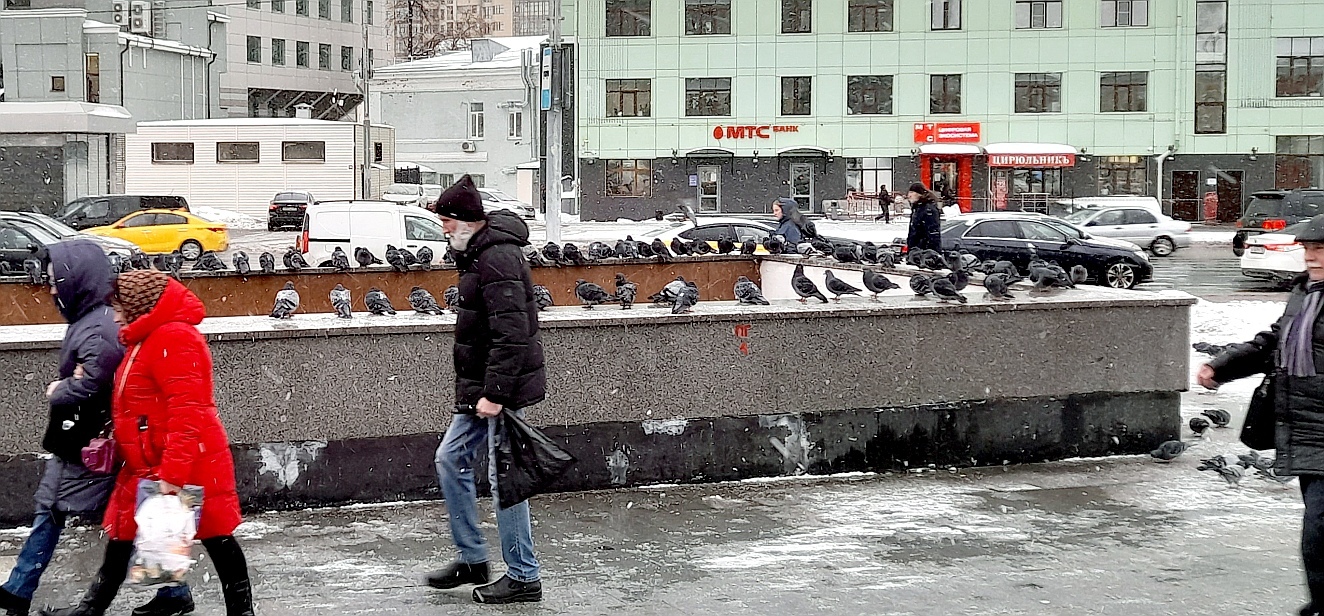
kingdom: Animalia
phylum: Chordata
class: Aves
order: Columbiformes
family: Columbidae
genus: Columba
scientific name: Columba livia
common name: Rock pigeon
